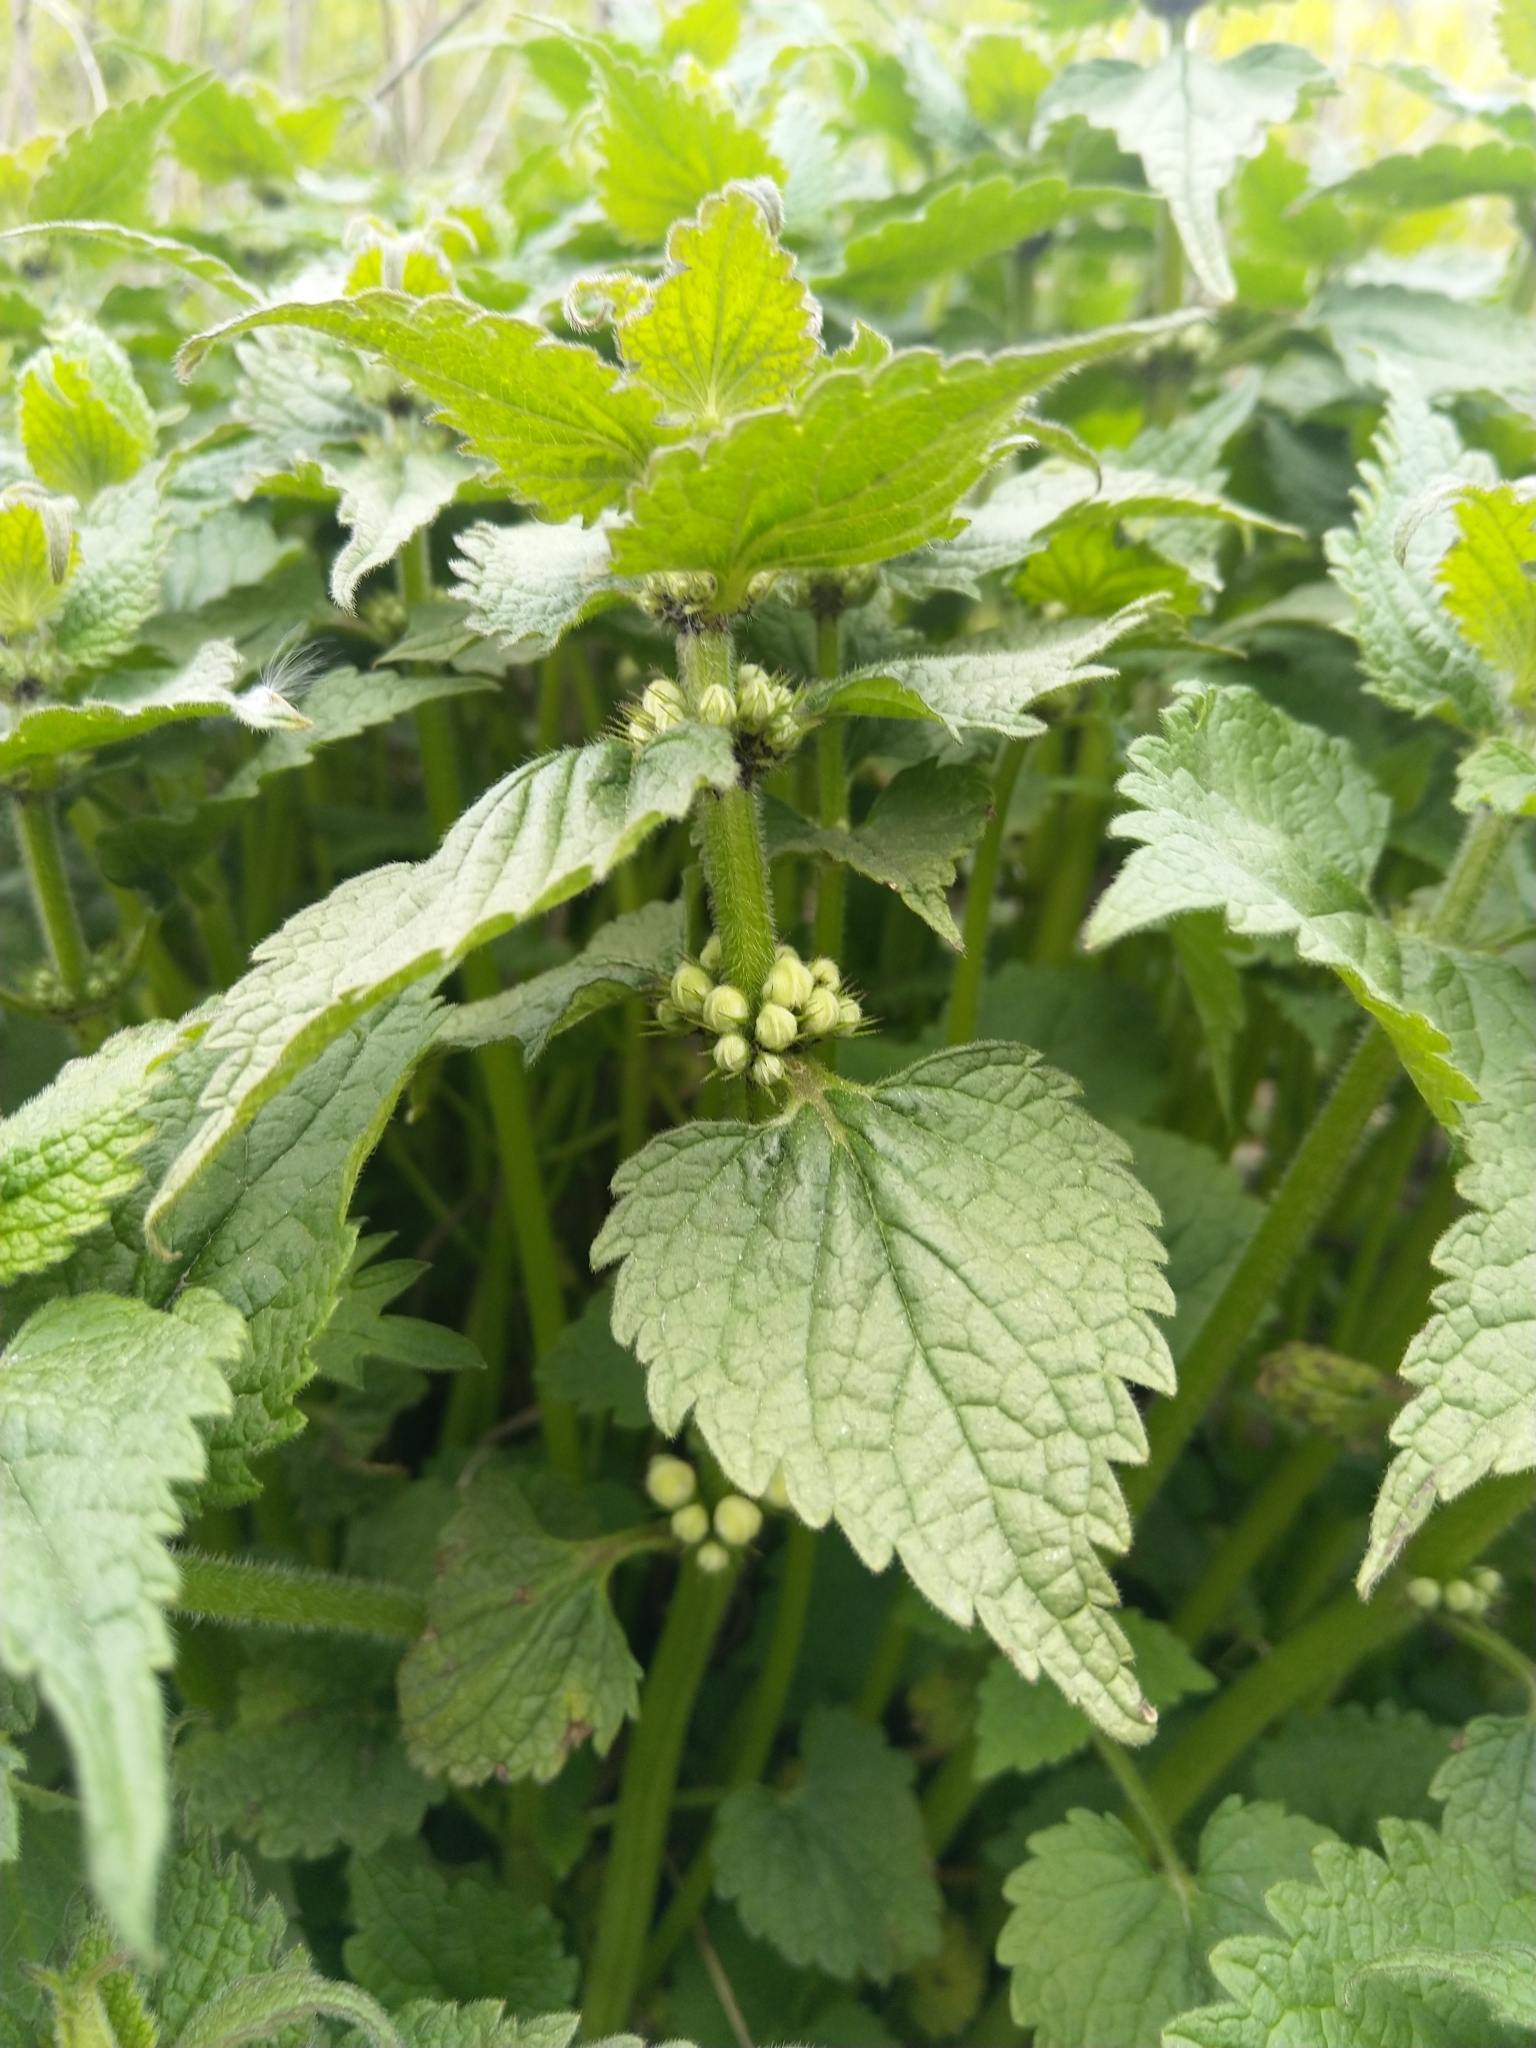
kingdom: Plantae
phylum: Tracheophyta
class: Magnoliopsida
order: Lamiales
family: Lamiaceae
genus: Lamium
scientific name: Lamium album
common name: White dead-nettle
